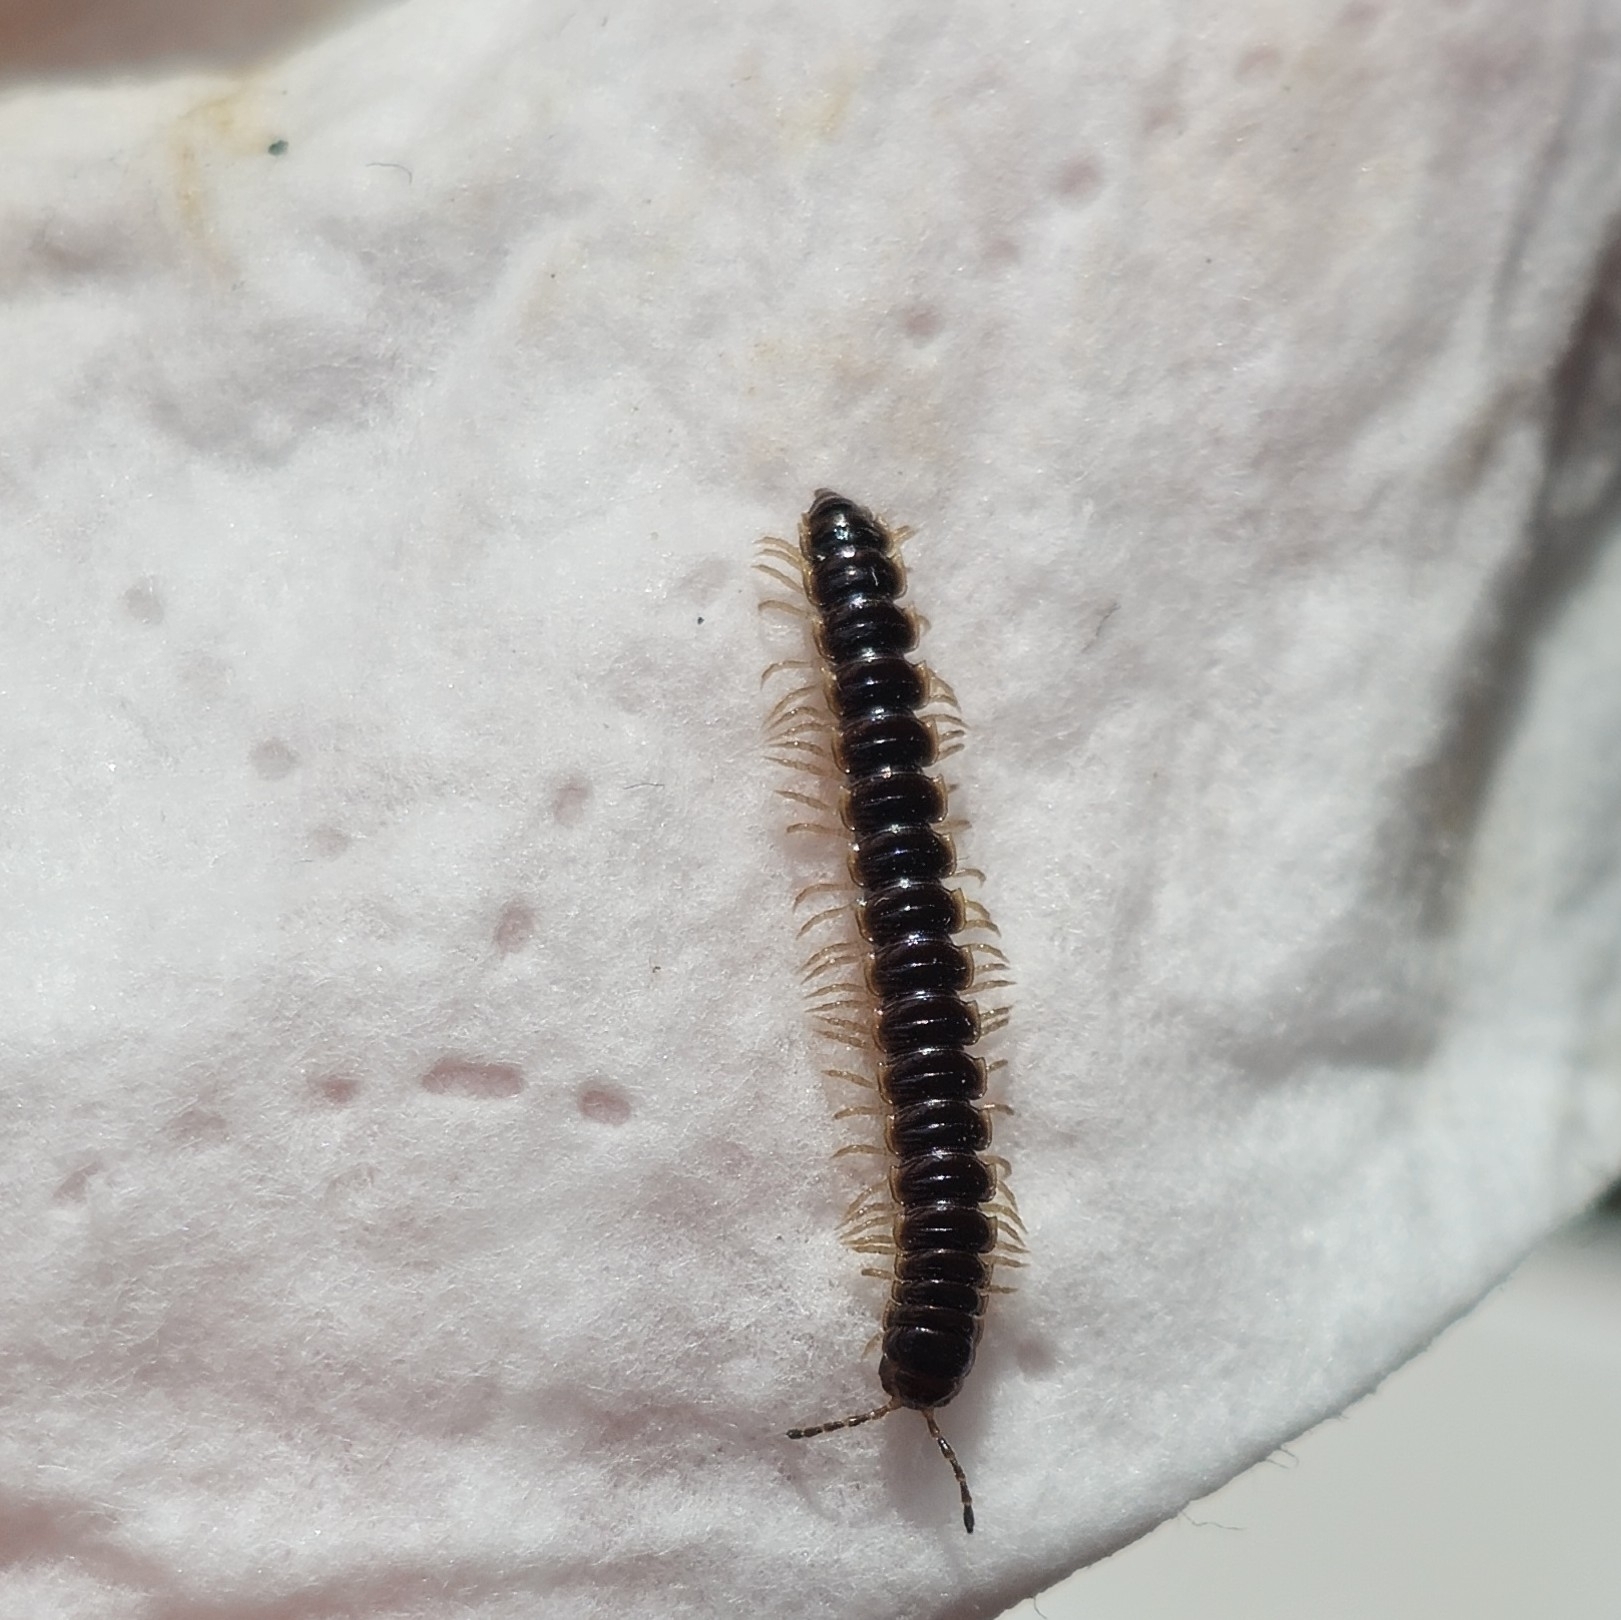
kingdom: Animalia
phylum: Arthropoda
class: Diplopoda
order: Polydesmida
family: Paradoxosomatidae
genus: Oxidus
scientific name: Oxidus gracilis
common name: Greenhouse millipede
